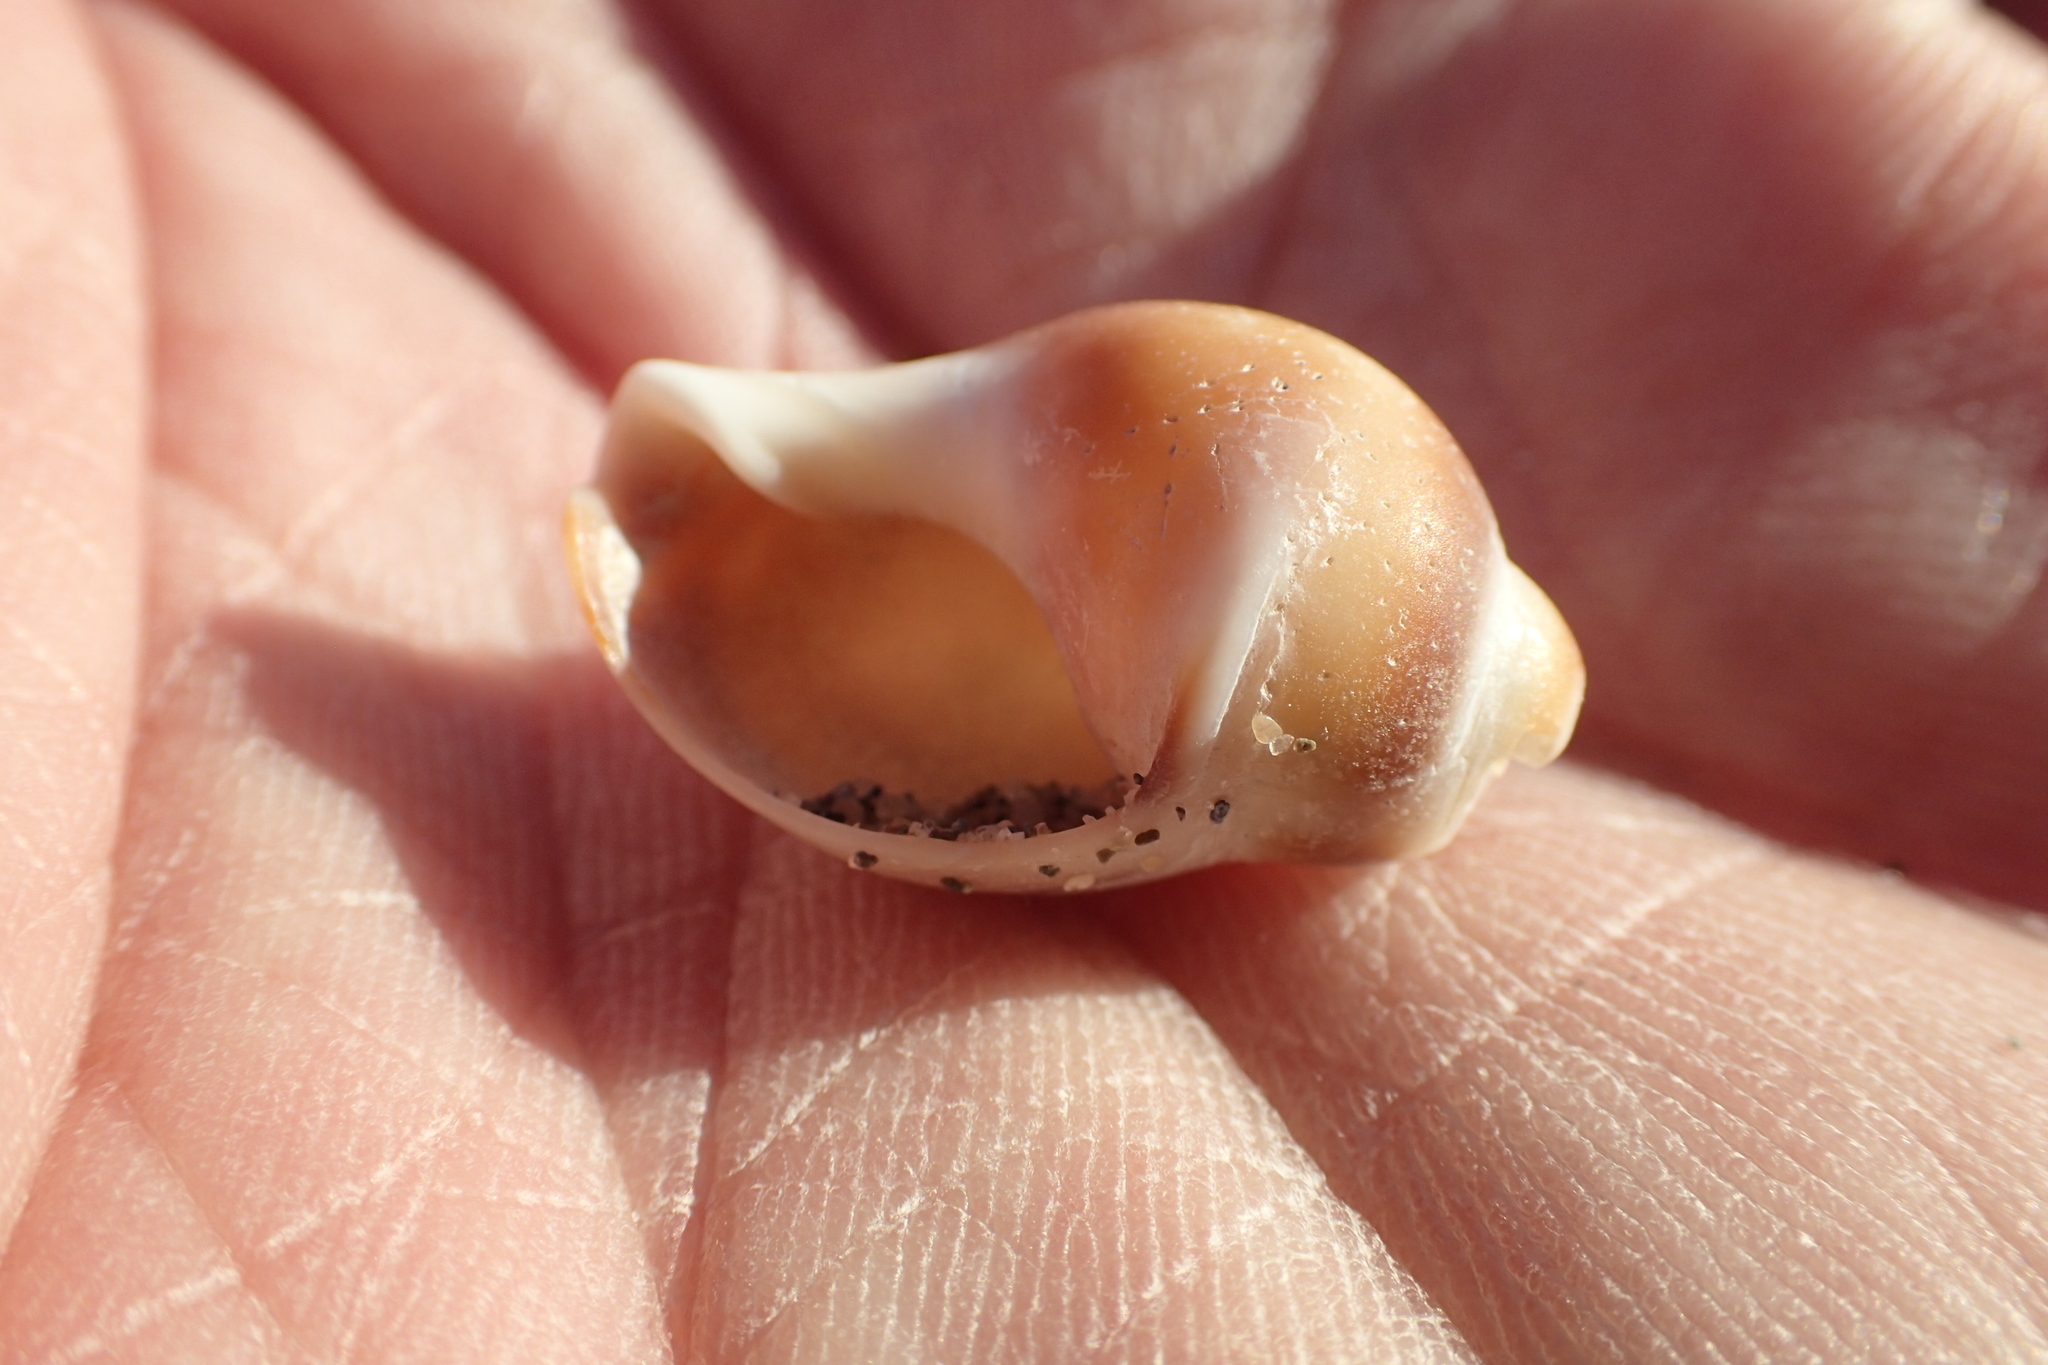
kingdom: Animalia
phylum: Mollusca
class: Gastropoda
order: Neogastropoda
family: Buccinanopsidae
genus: Buccinastrum
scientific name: Buccinastrum deforme
